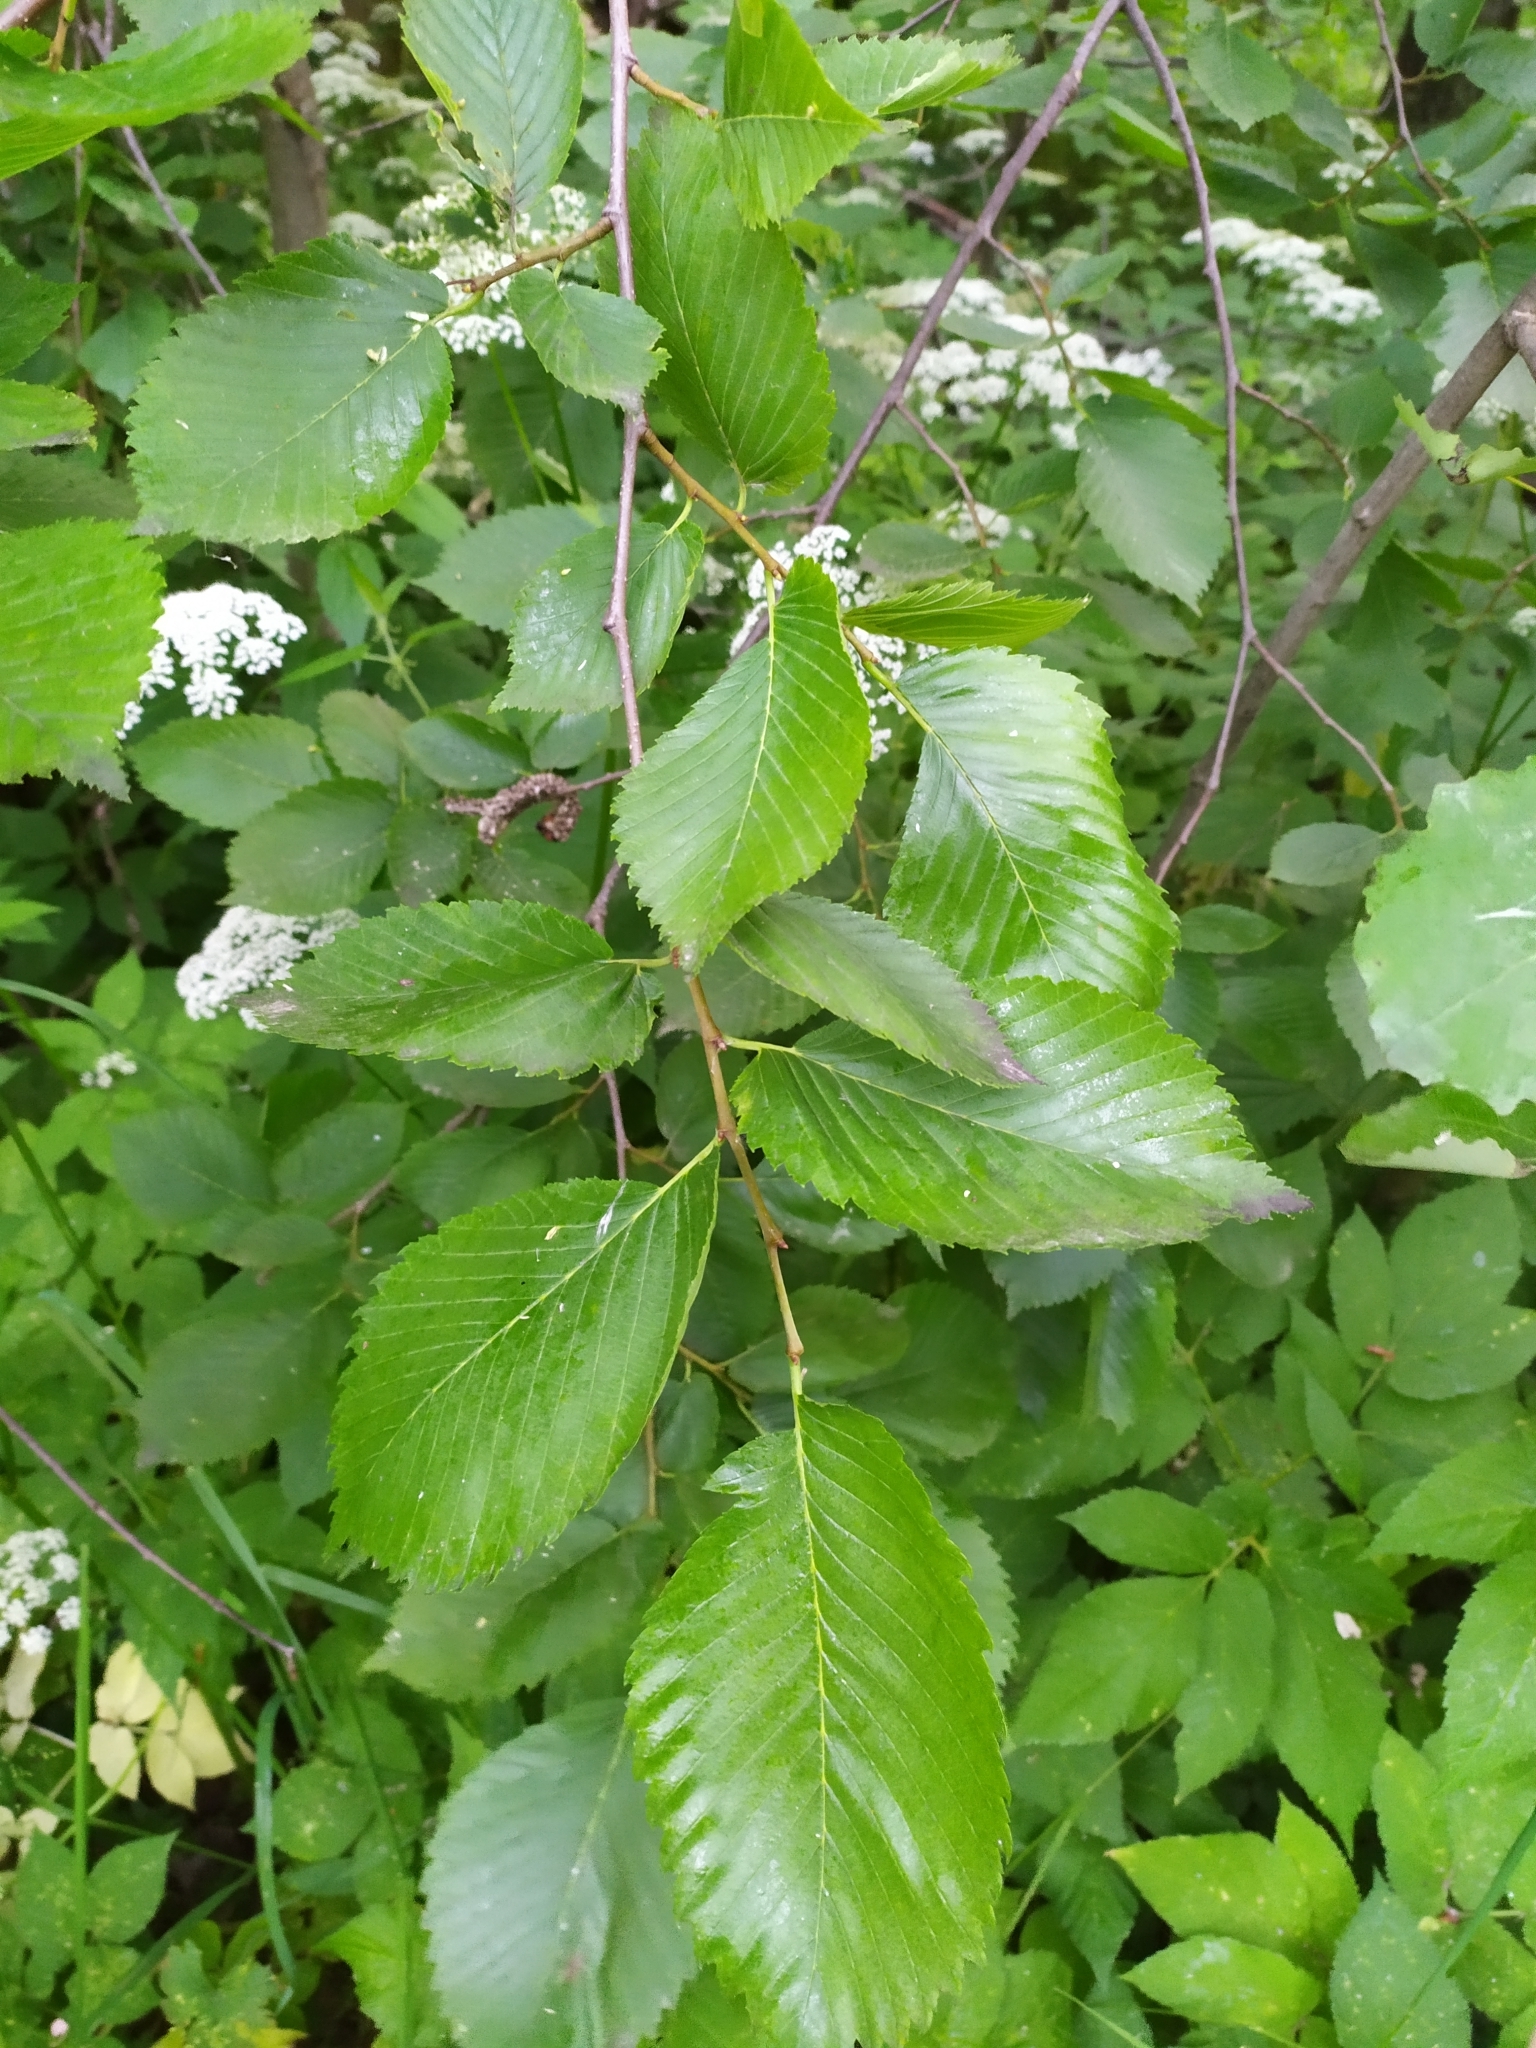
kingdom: Plantae
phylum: Tracheophyta
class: Magnoliopsida
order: Rosales
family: Ulmaceae
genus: Ulmus
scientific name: Ulmus laevis
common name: European white-elm
